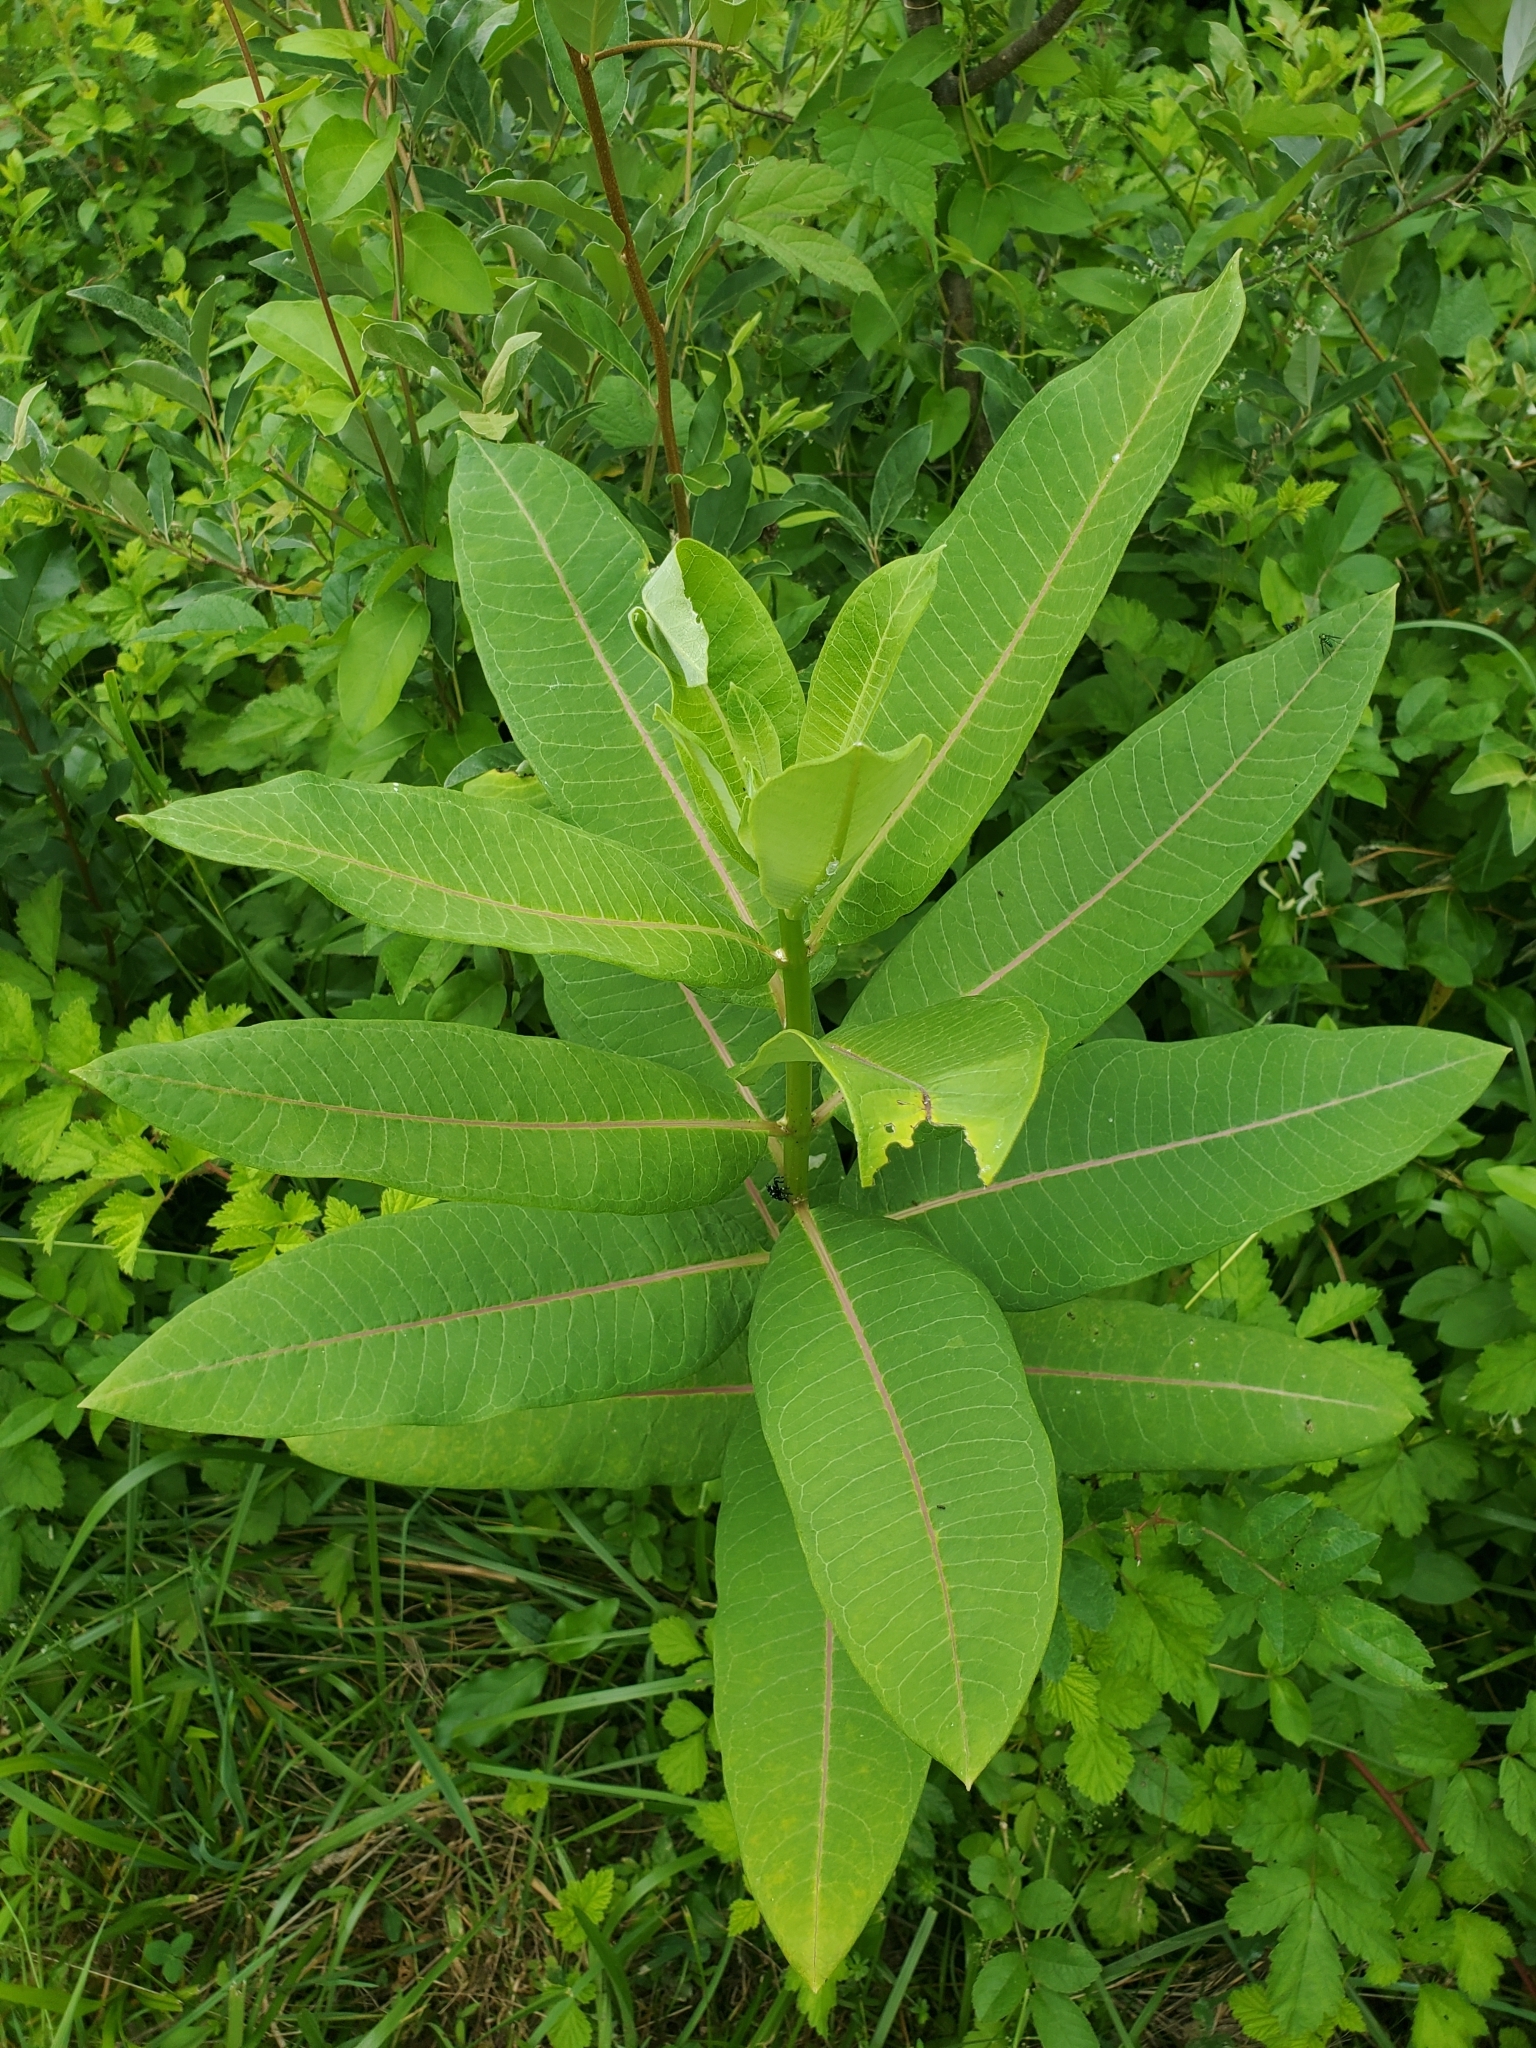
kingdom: Plantae
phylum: Tracheophyta
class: Magnoliopsida
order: Gentianales
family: Apocynaceae
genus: Asclepias
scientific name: Asclepias syriaca
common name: Common milkweed
